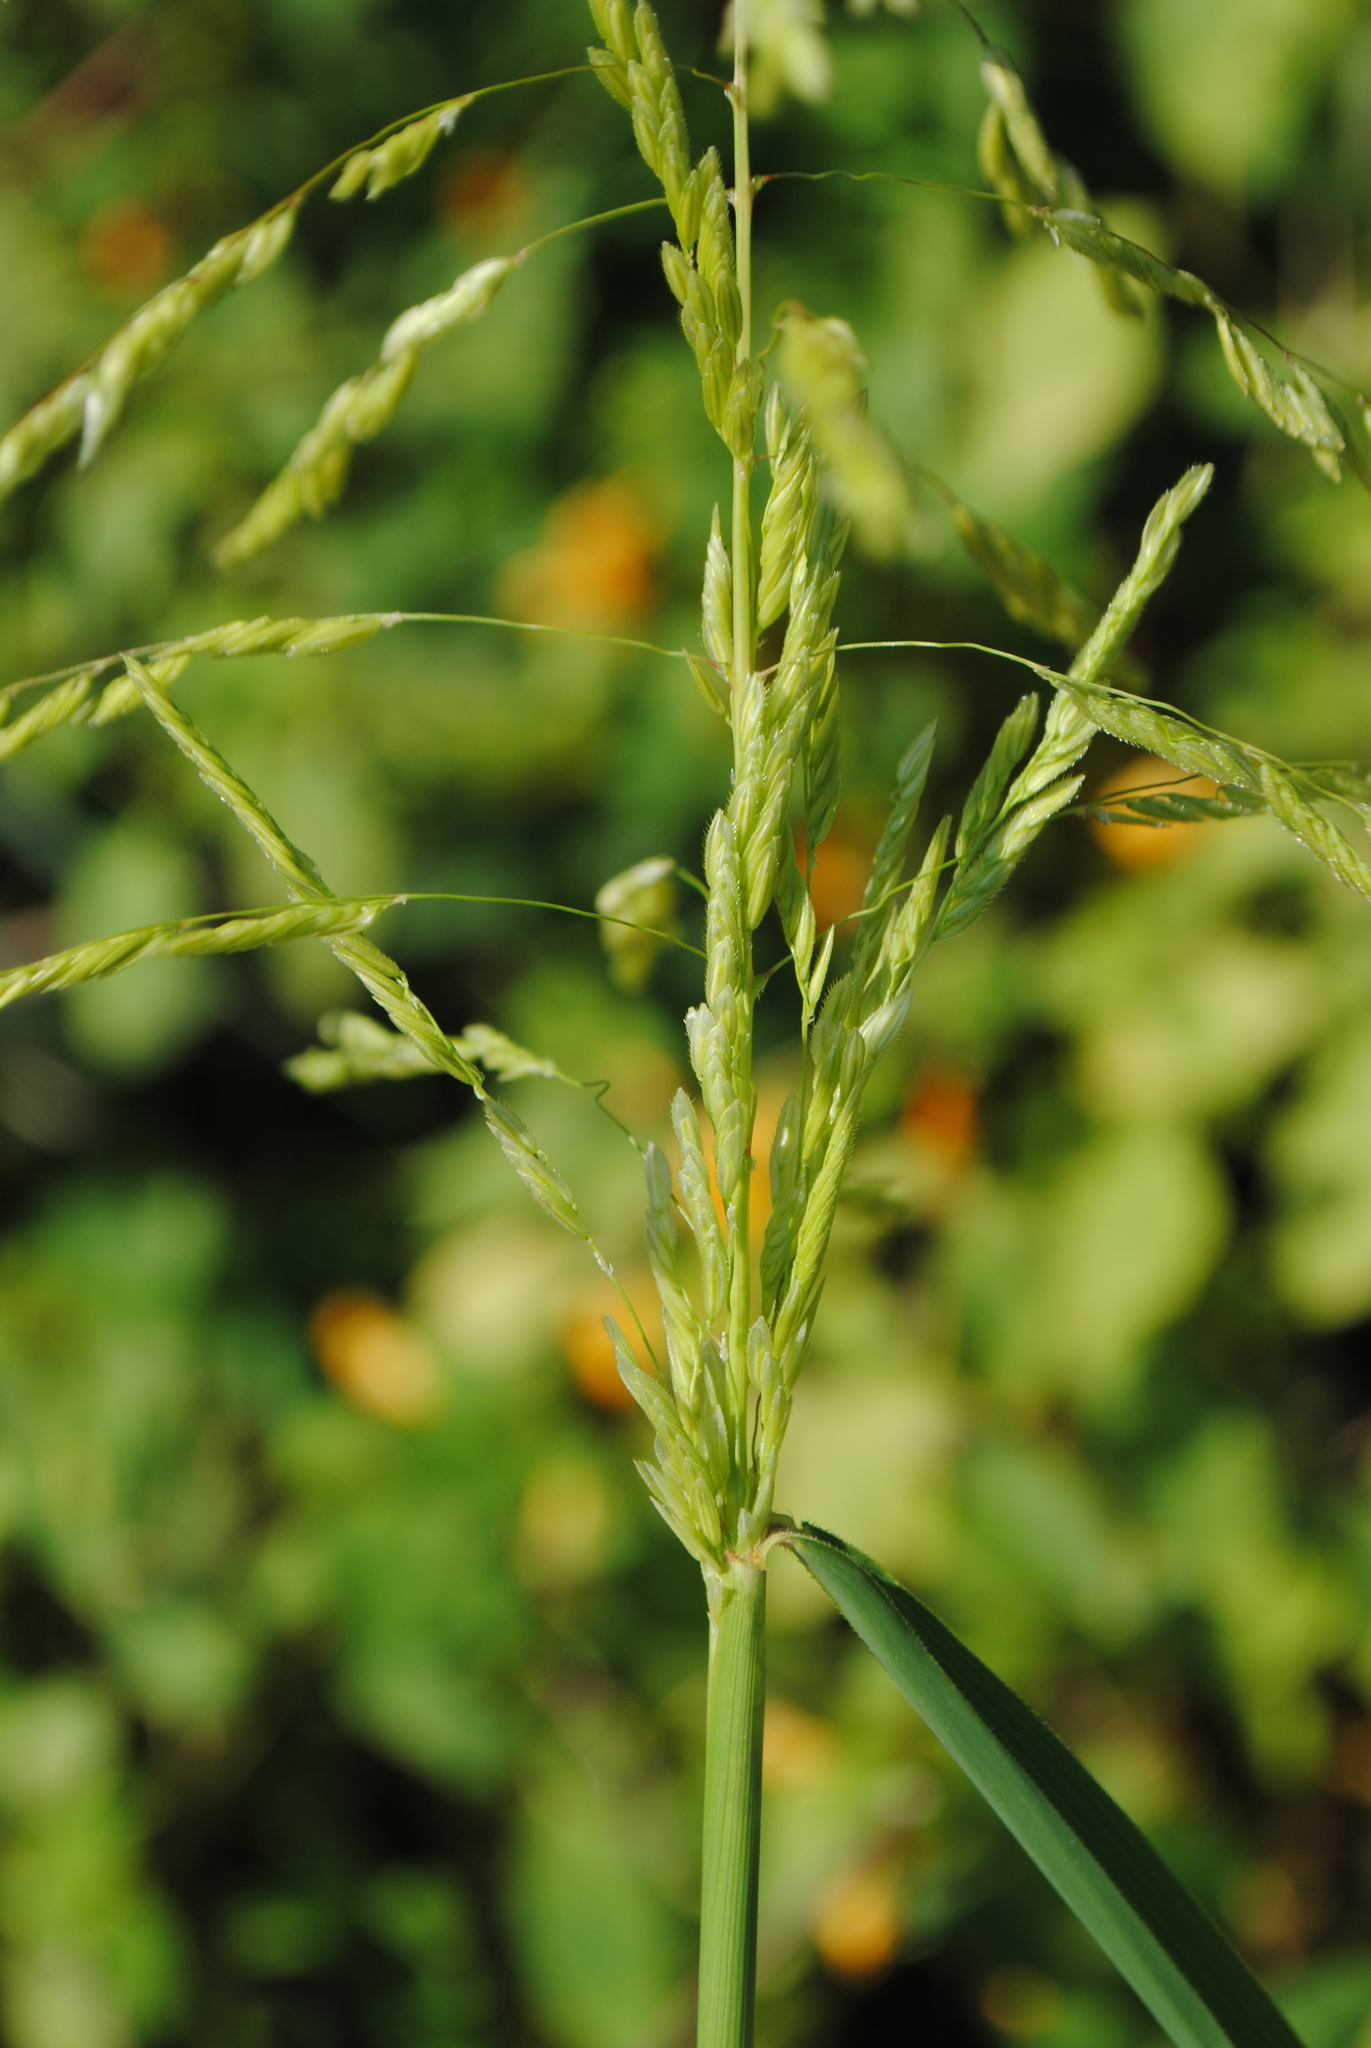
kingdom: Plantae
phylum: Tracheophyta
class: Liliopsida
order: Poales
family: Poaceae
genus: Leersia
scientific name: Leersia oryzoides
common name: Cut-grass
